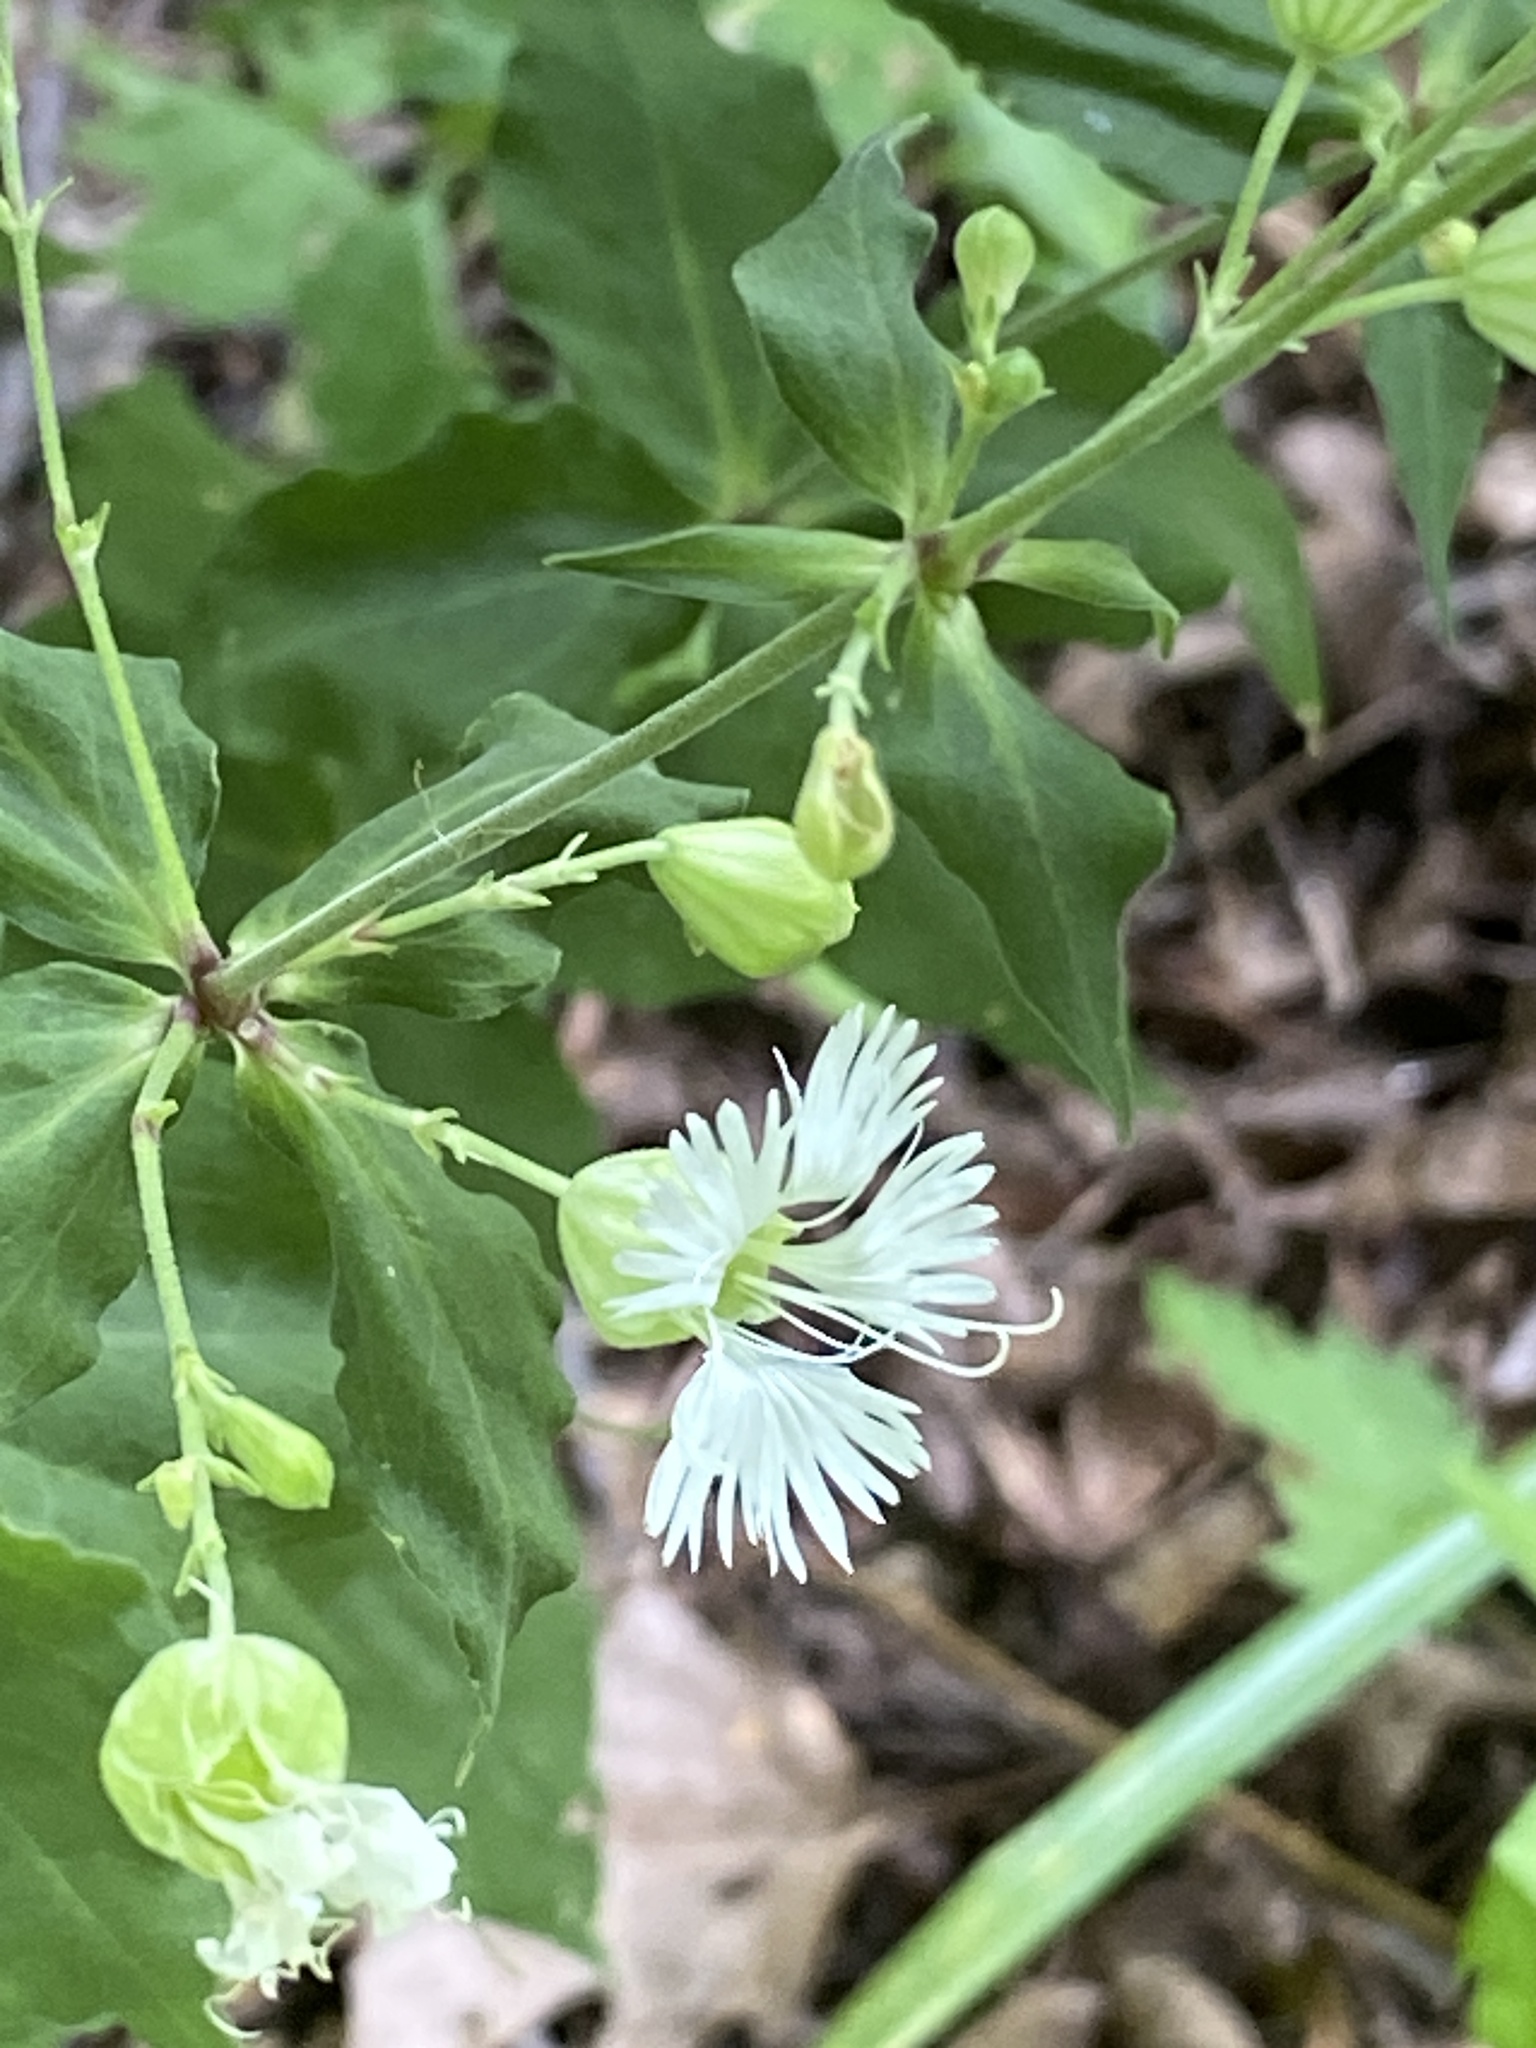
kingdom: Plantae
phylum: Tracheophyta
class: Magnoliopsida
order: Caryophyllales
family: Caryophyllaceae
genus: Silene
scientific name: Silene stellata
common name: Starry campion
